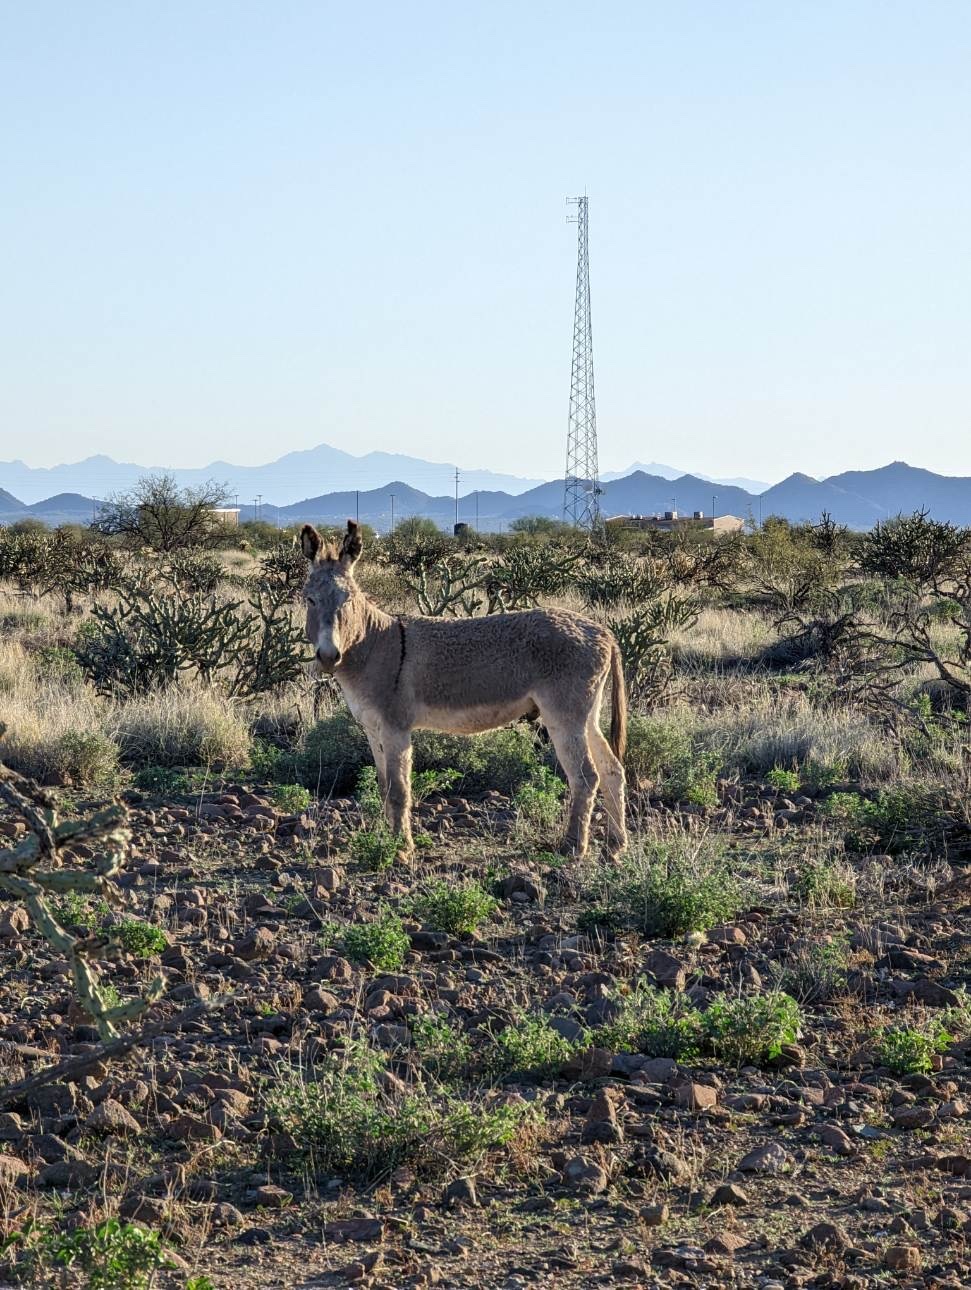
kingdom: Animalia
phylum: Chordata
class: Mammalia
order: Perissodactyla
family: Equidae
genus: Equus
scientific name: Equus asinus
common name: Ass
